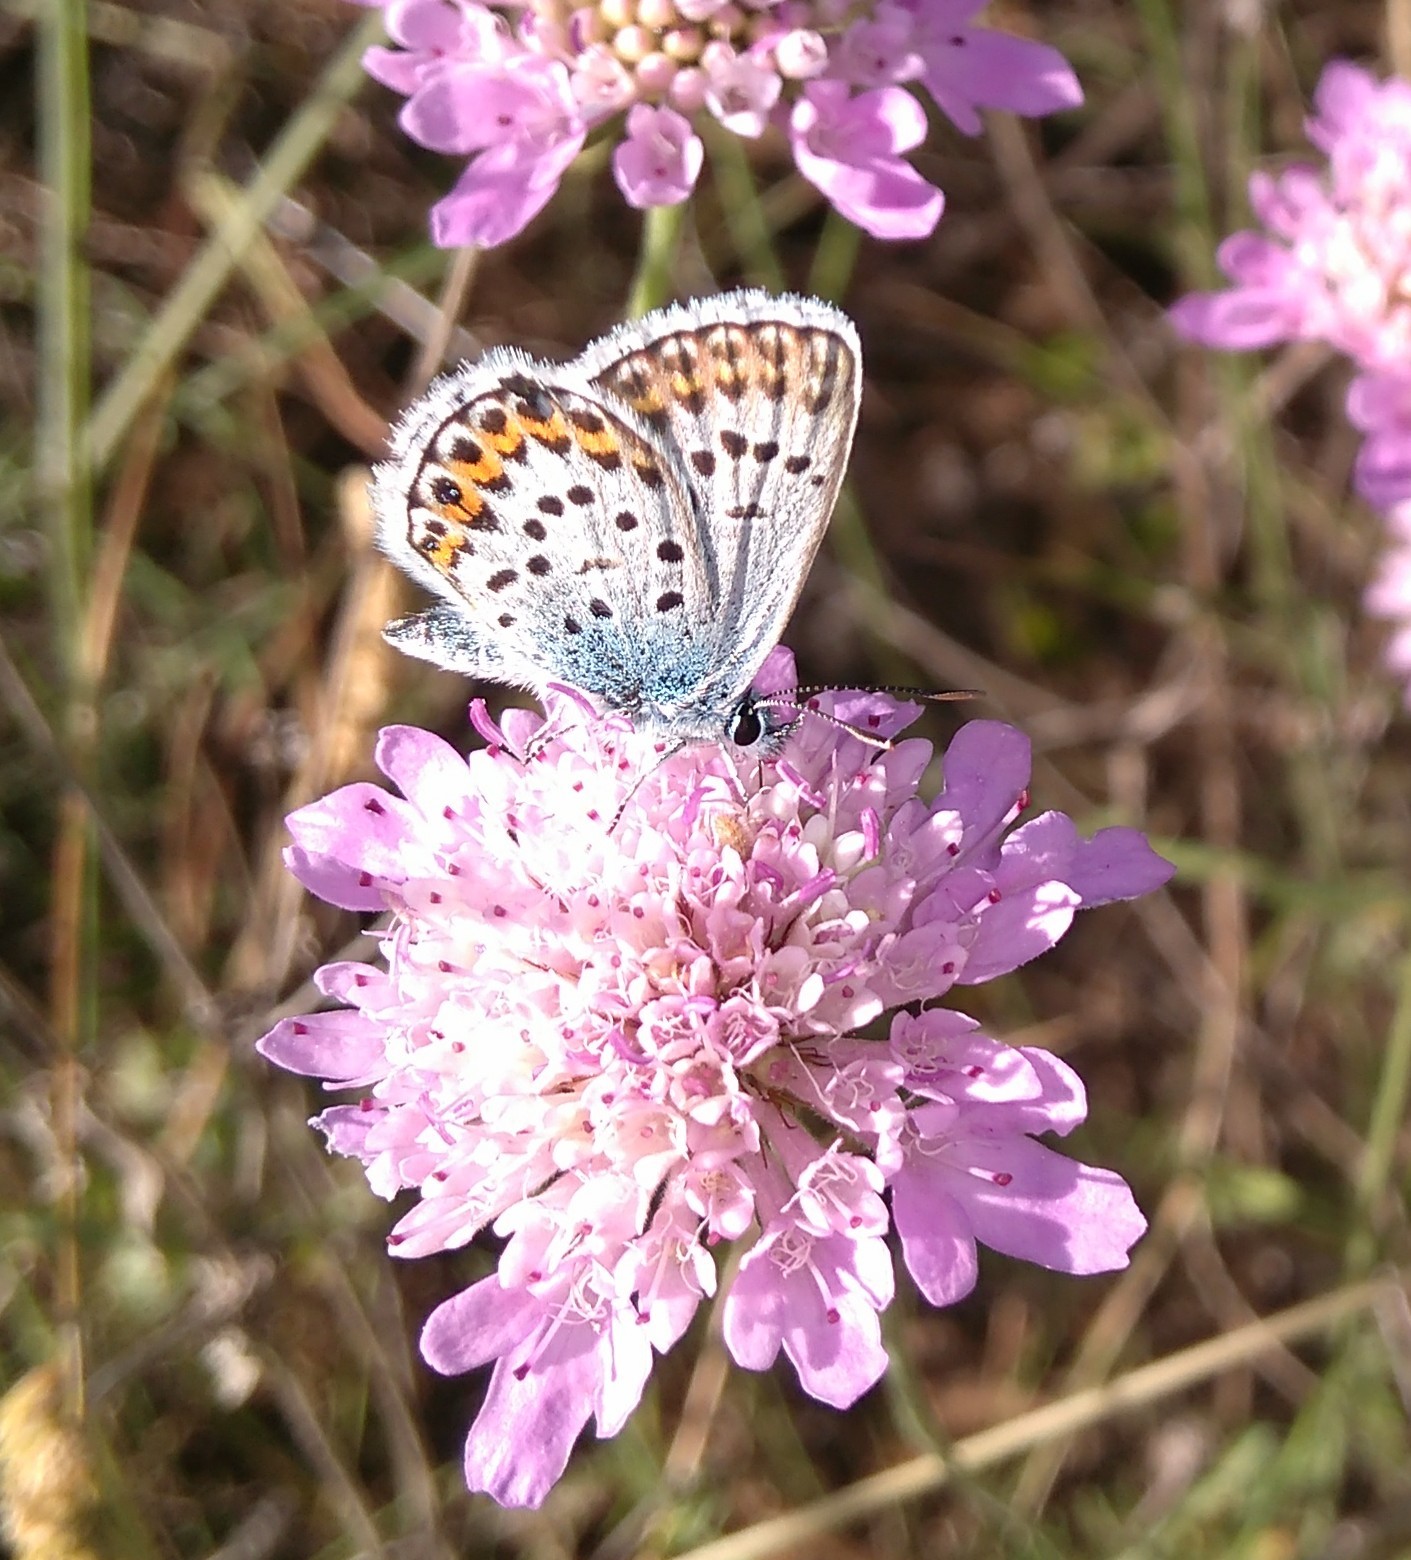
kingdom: Animalia
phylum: Arthropoda
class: Insecta
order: Lepidoptera
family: Lycaenidae
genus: Plebejus
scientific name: Plebejus argus
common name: Silver-studded blue
